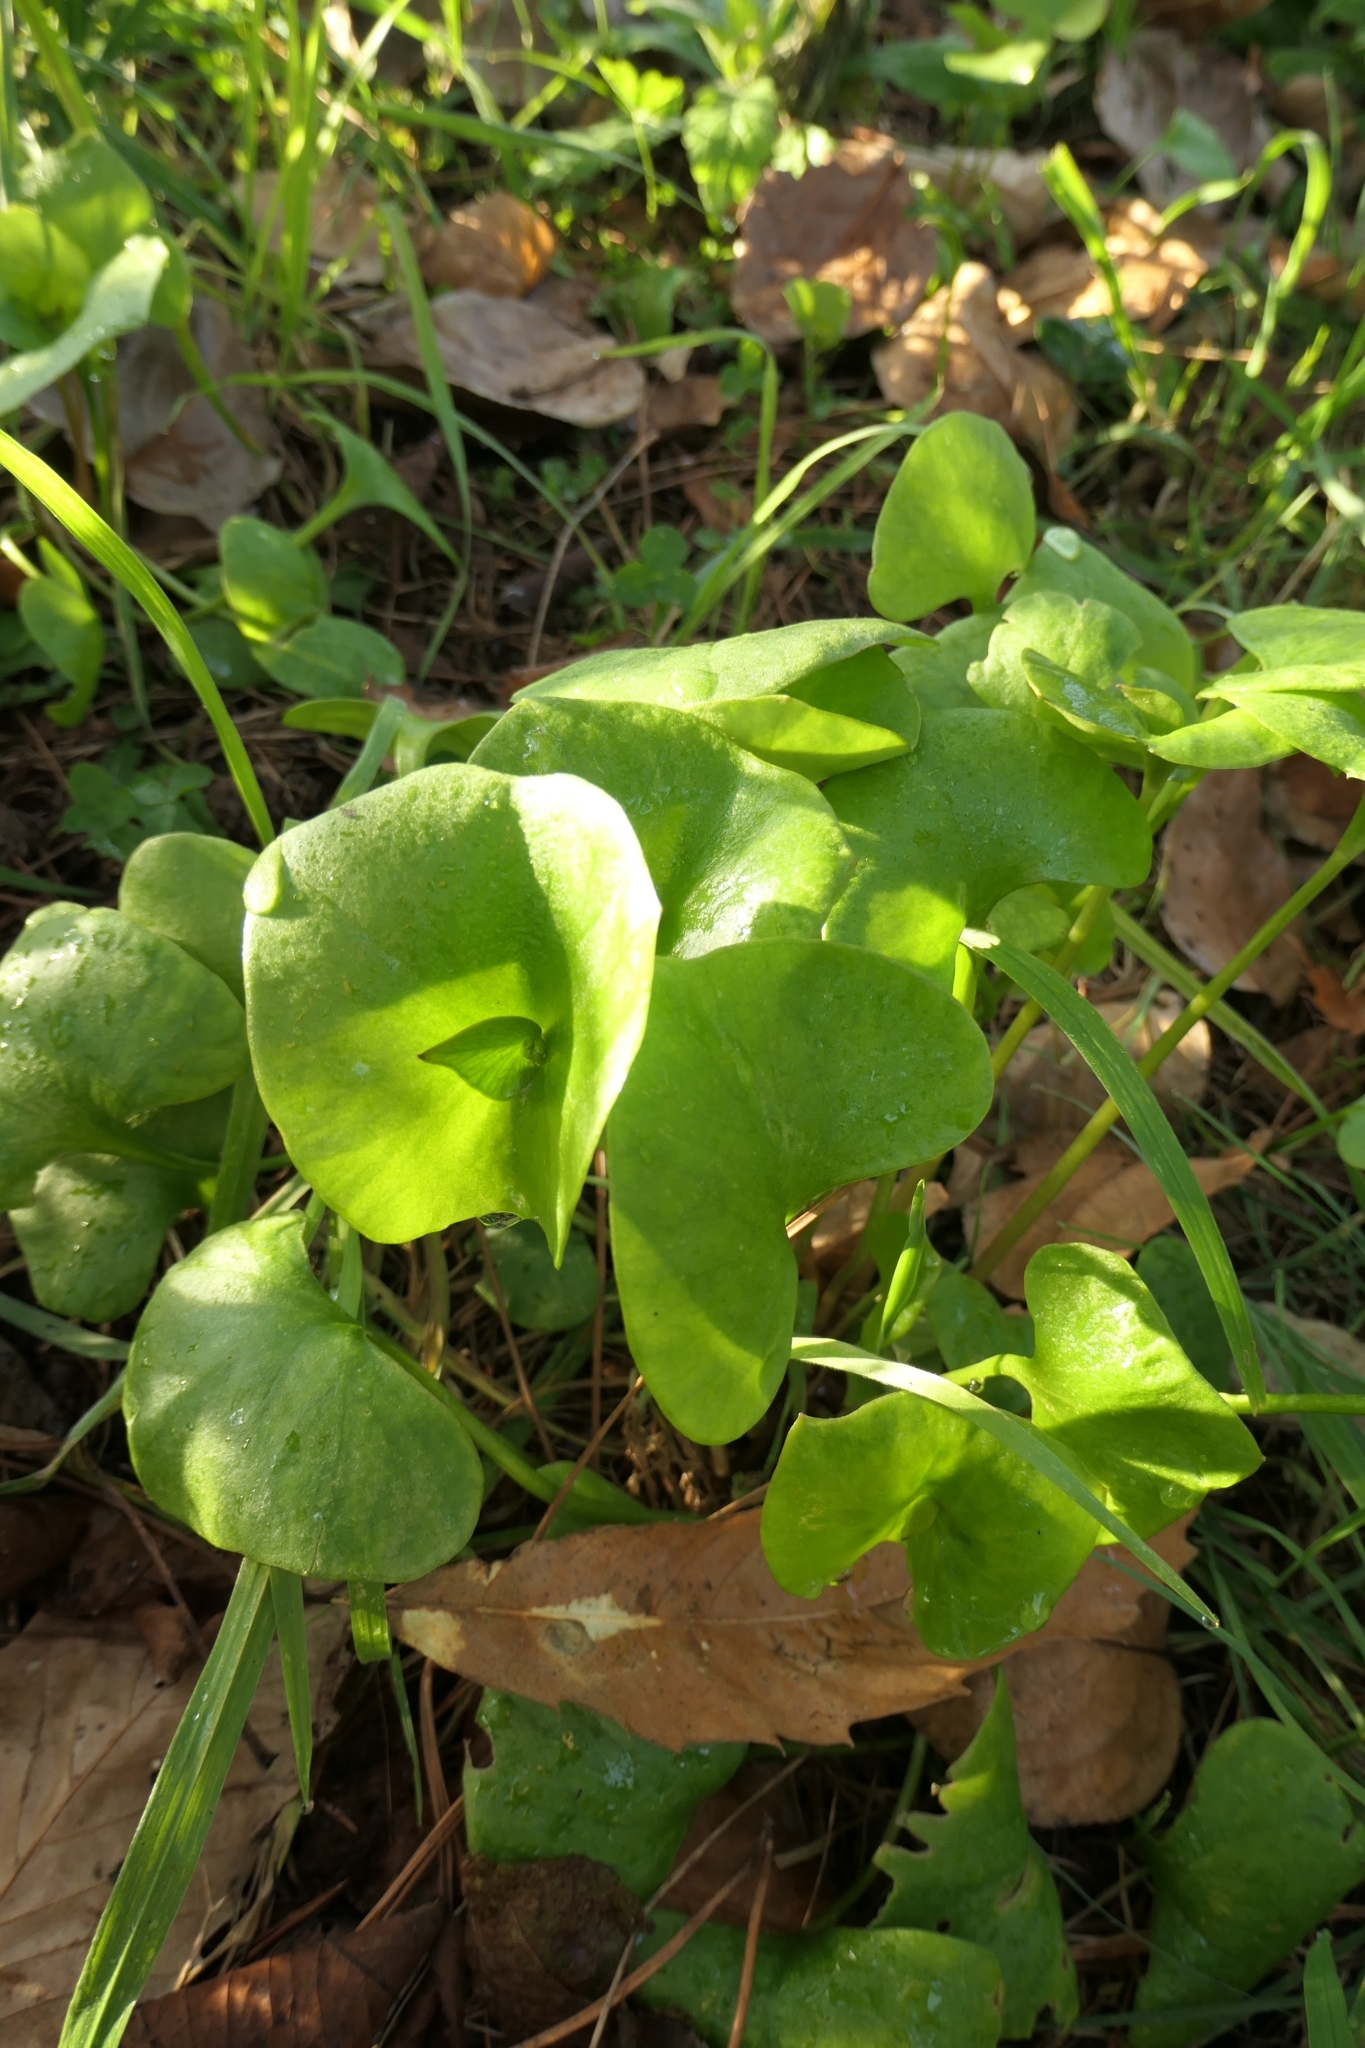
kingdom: Plantae
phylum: Tracheophyta
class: Magnoliopsida
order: Caryophyllales
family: Montiaceae
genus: Claytonia
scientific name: Claytonia perfoliata
